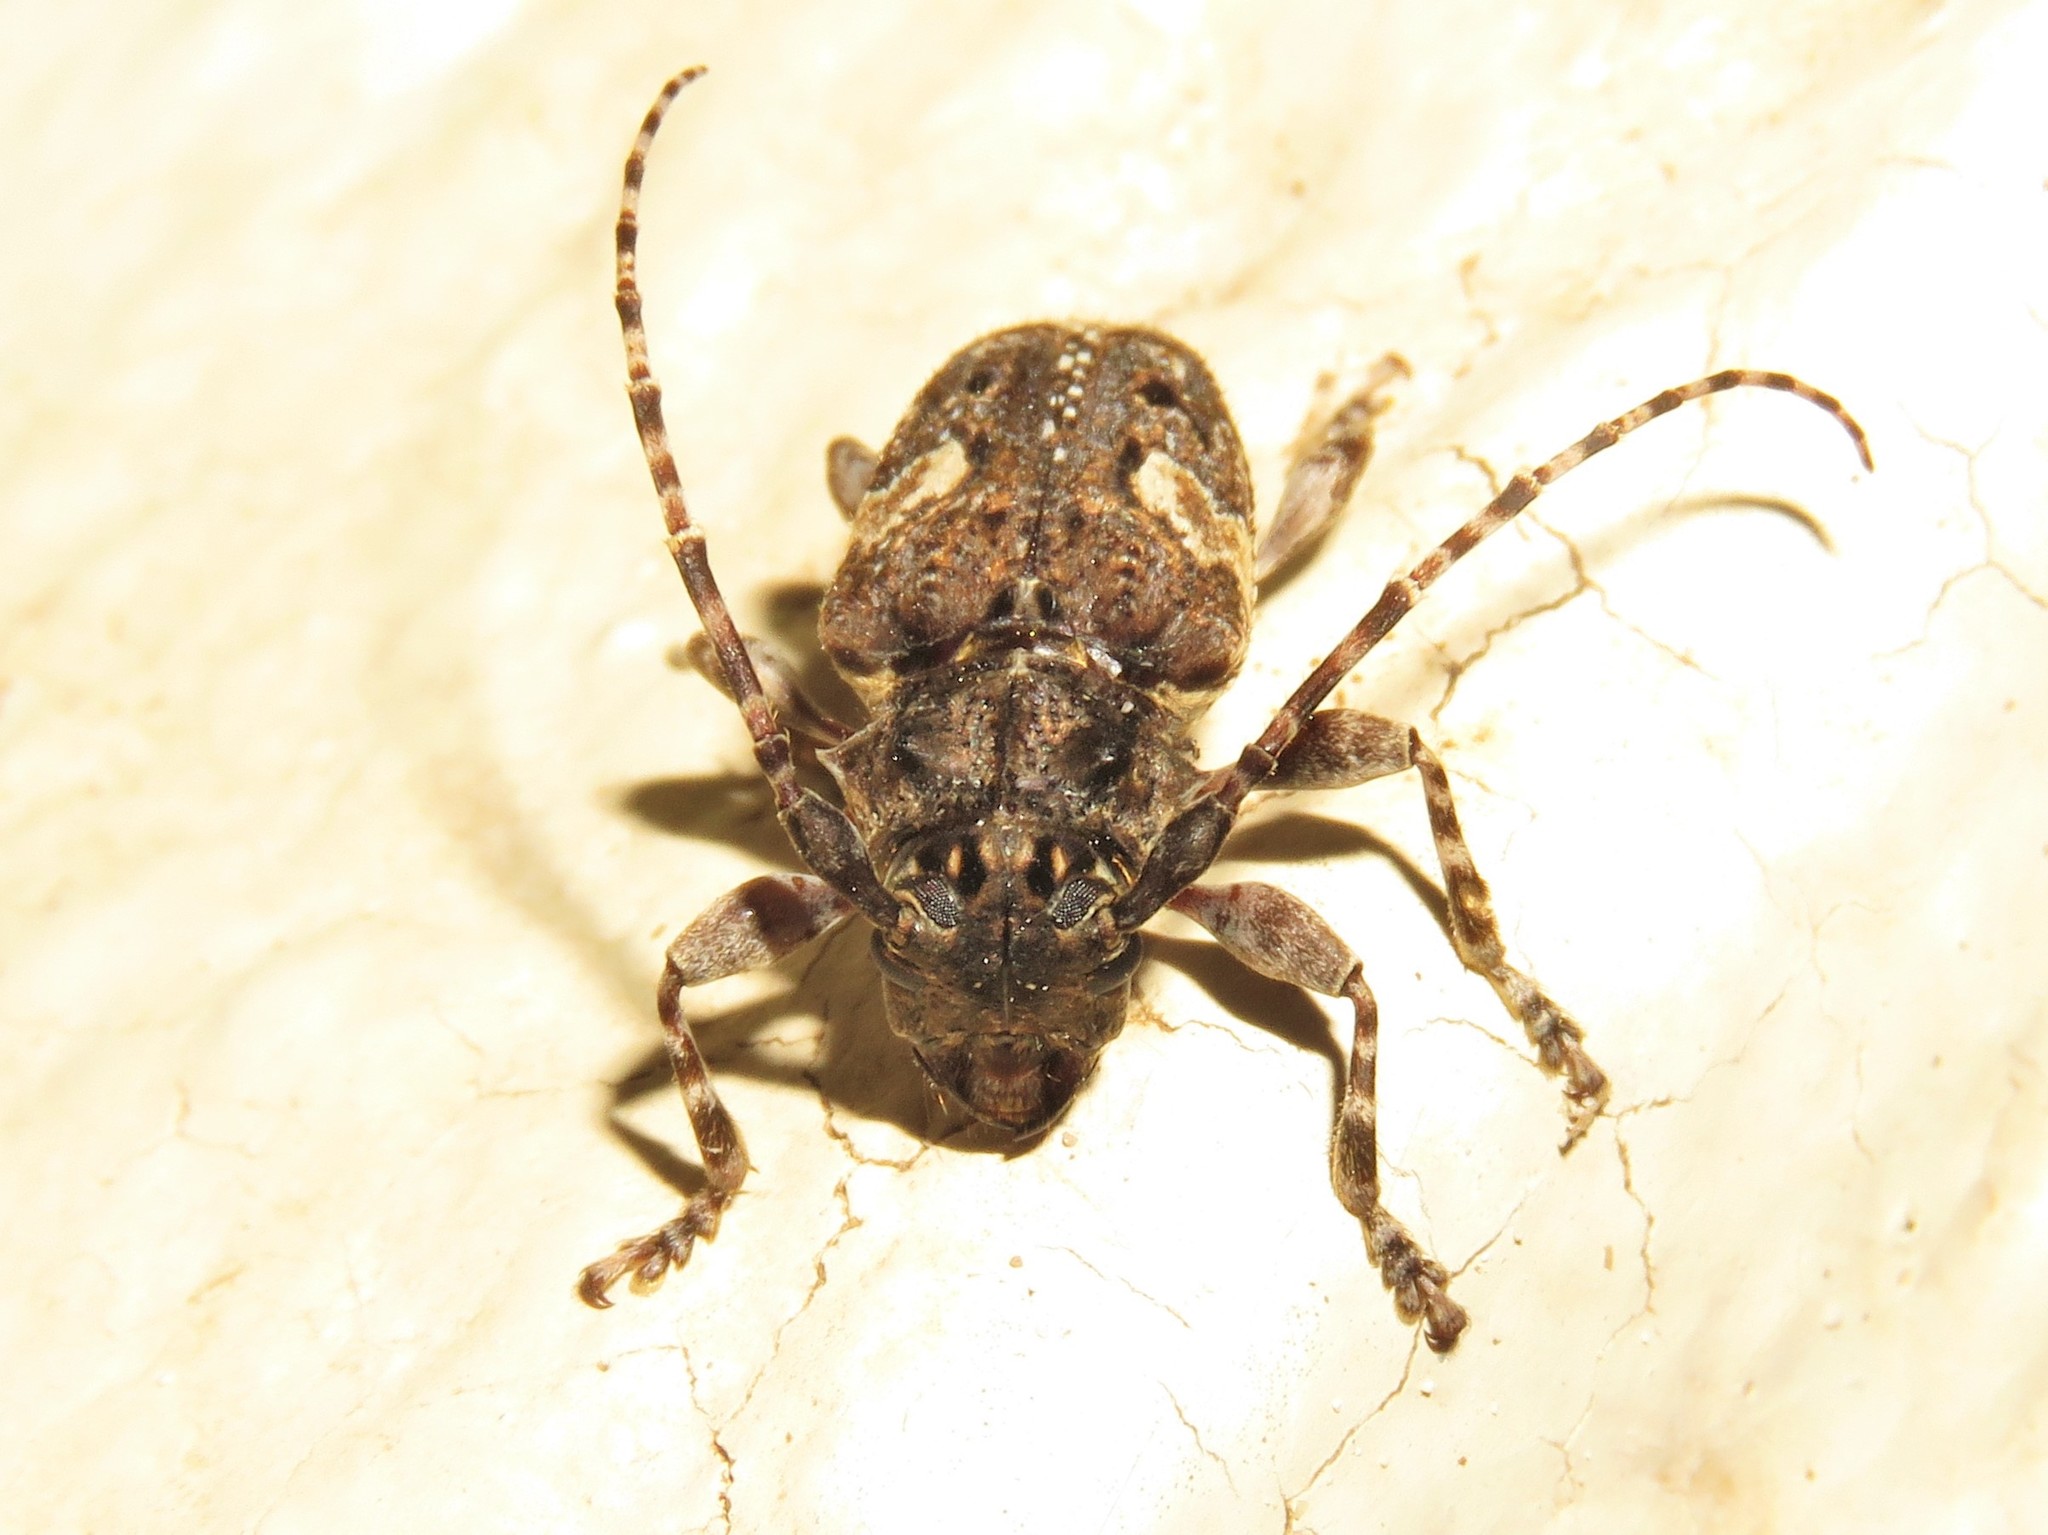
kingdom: Animalia
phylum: Arthropoda
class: Insecta
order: Coleoptera
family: Cerambycidae
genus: Psapharochrus
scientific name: Psapharochrus circumflexus
